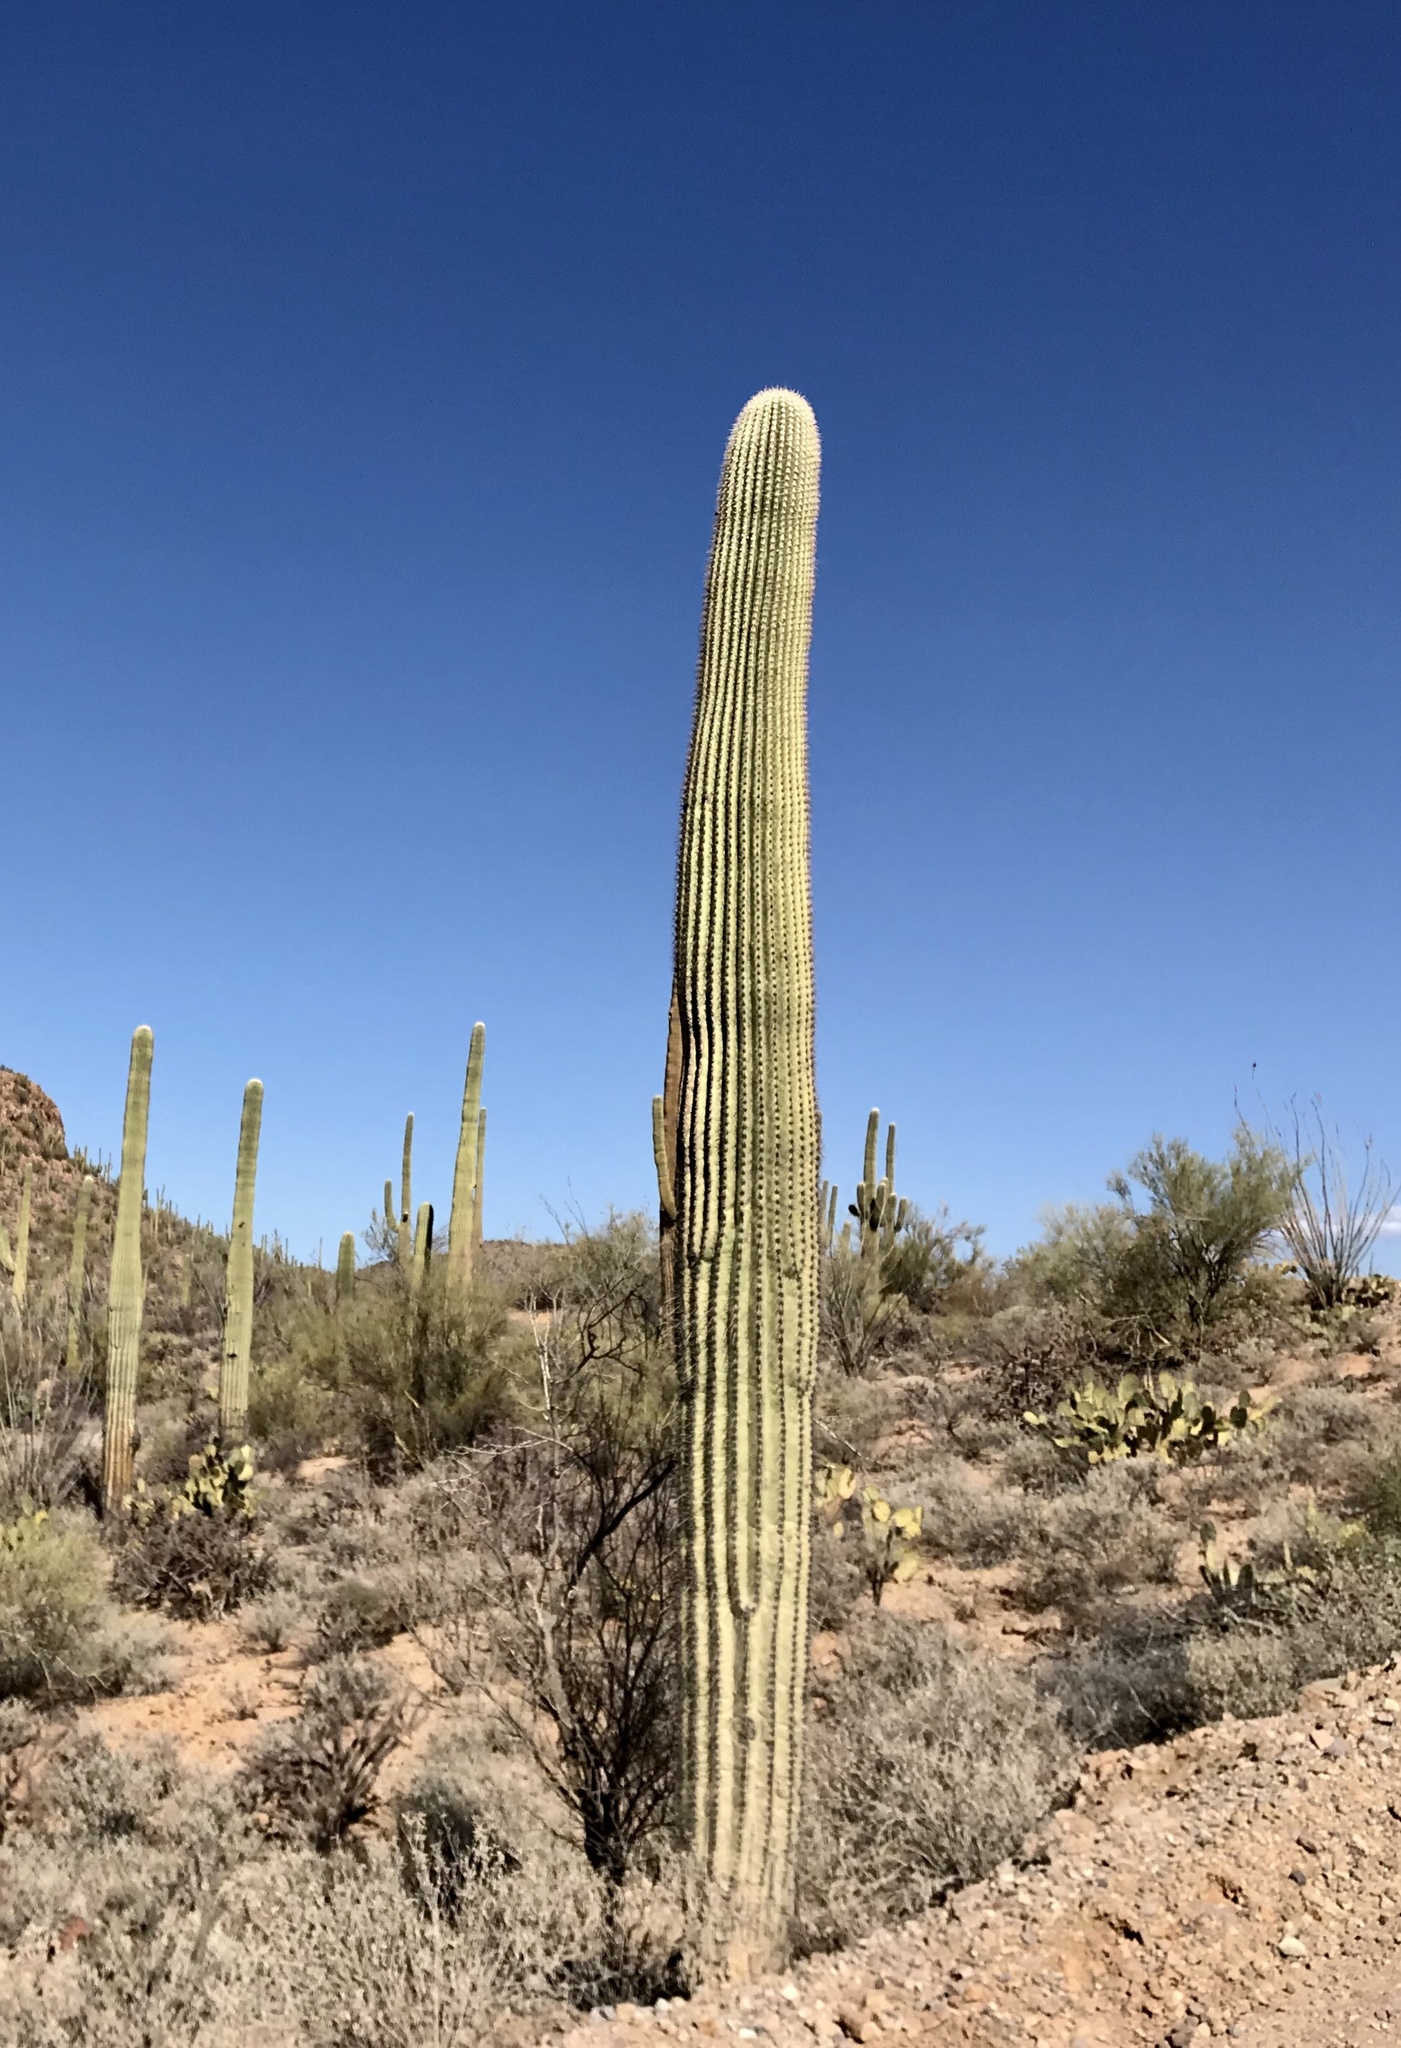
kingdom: Plantae
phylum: Tracheophyta
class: Magnoliopsida
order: Caryophyllales
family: Cactaceae
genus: Carnegiea
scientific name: Carnegiea gigantea
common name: Saguaro
